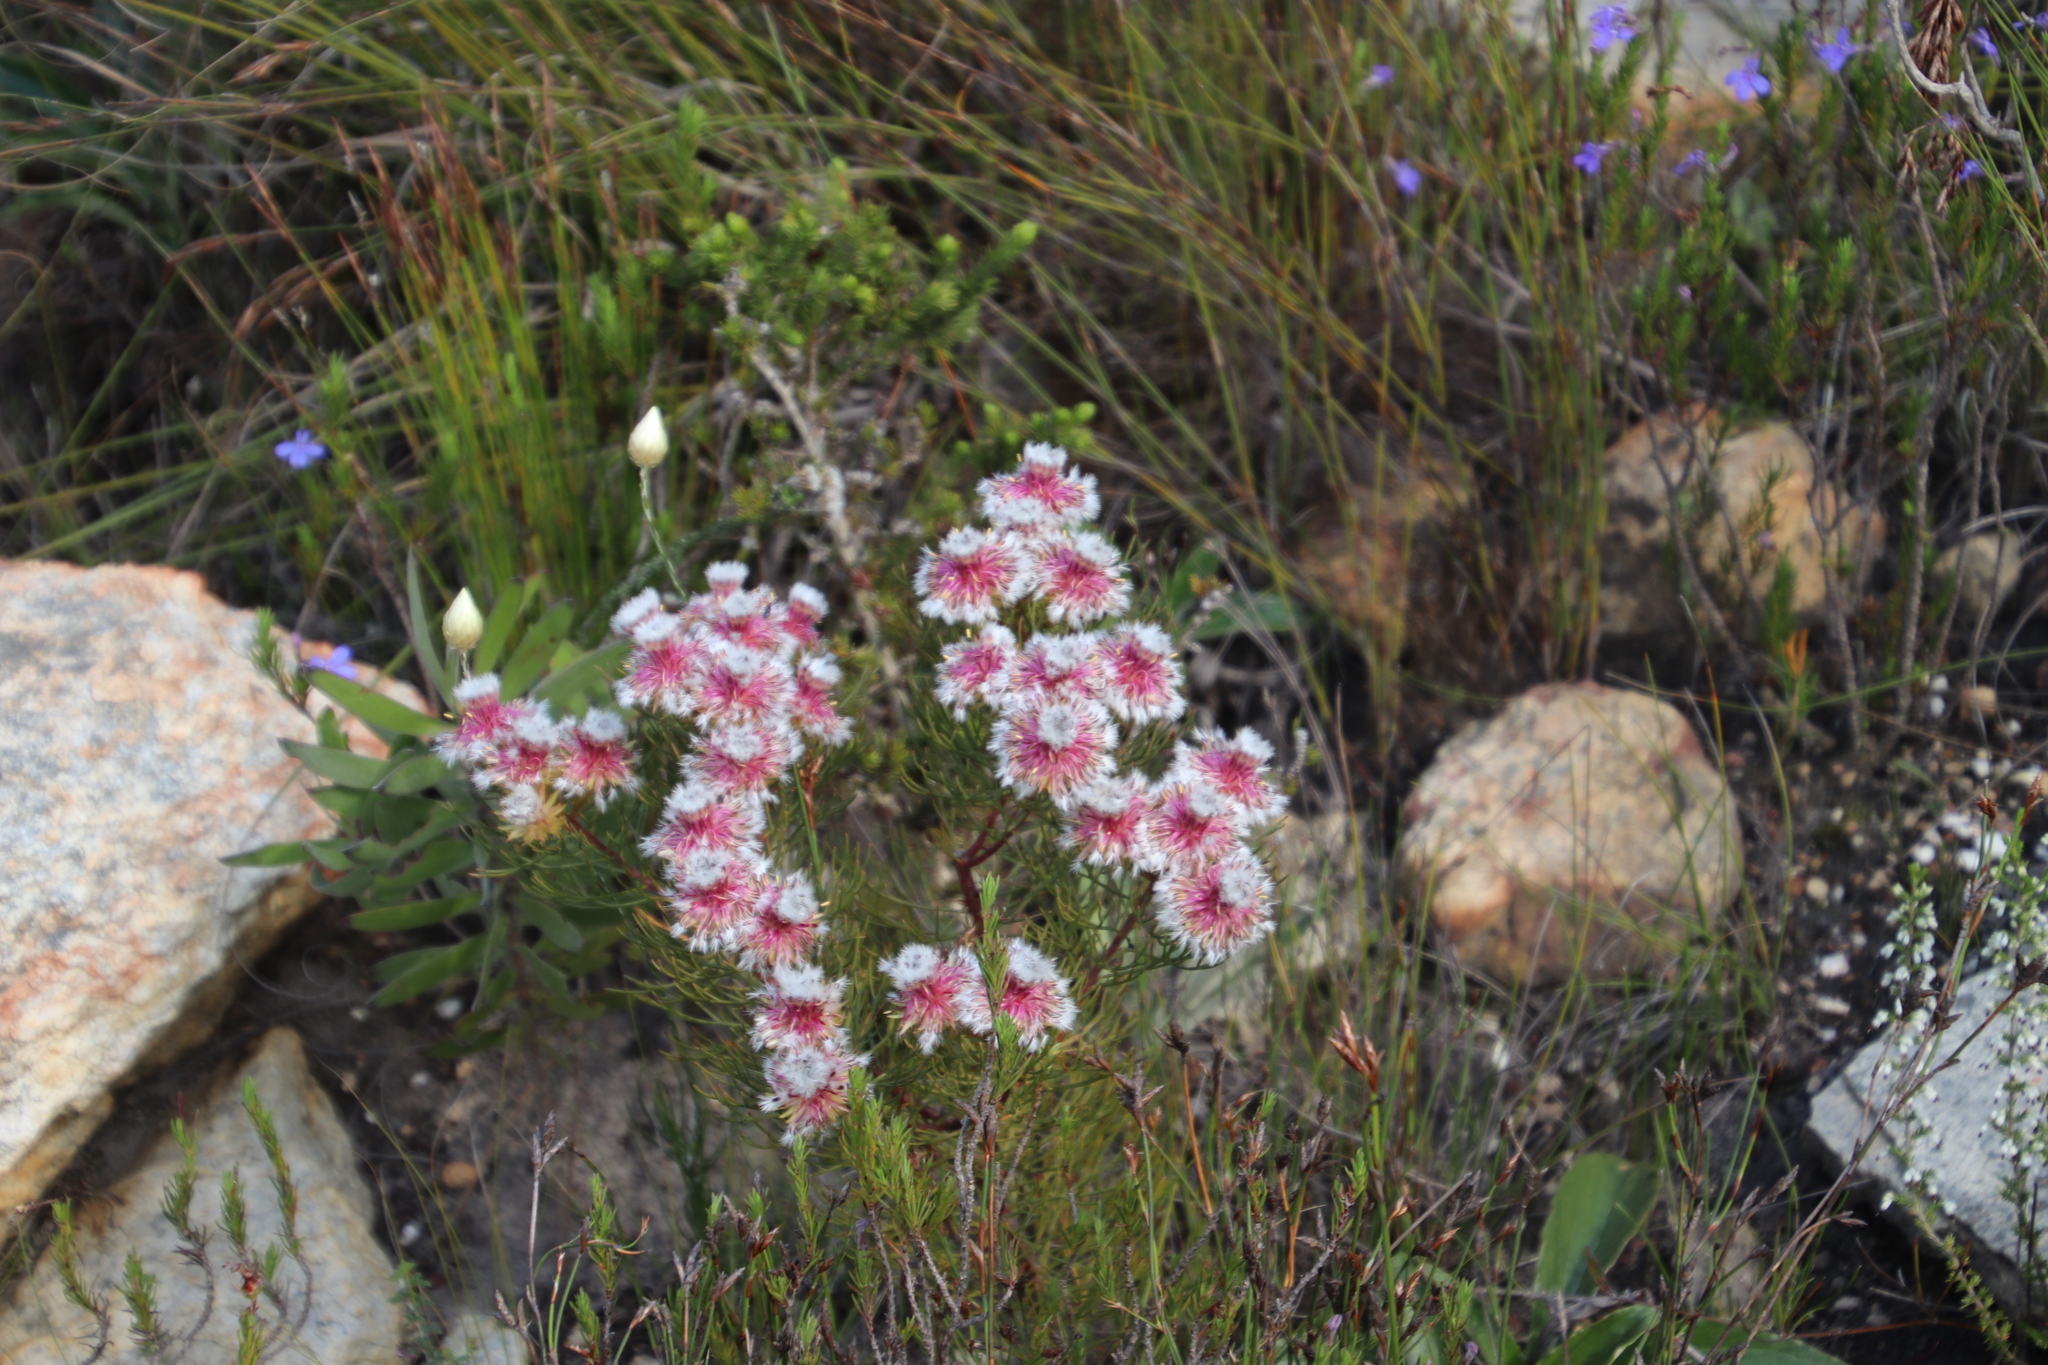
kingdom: Plantae
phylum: Tracheophyta
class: Magnoliopsida
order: Proteales
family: Proteaceae
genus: Serruria
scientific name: Serruria phylicoides
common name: Bearded spiderhead
